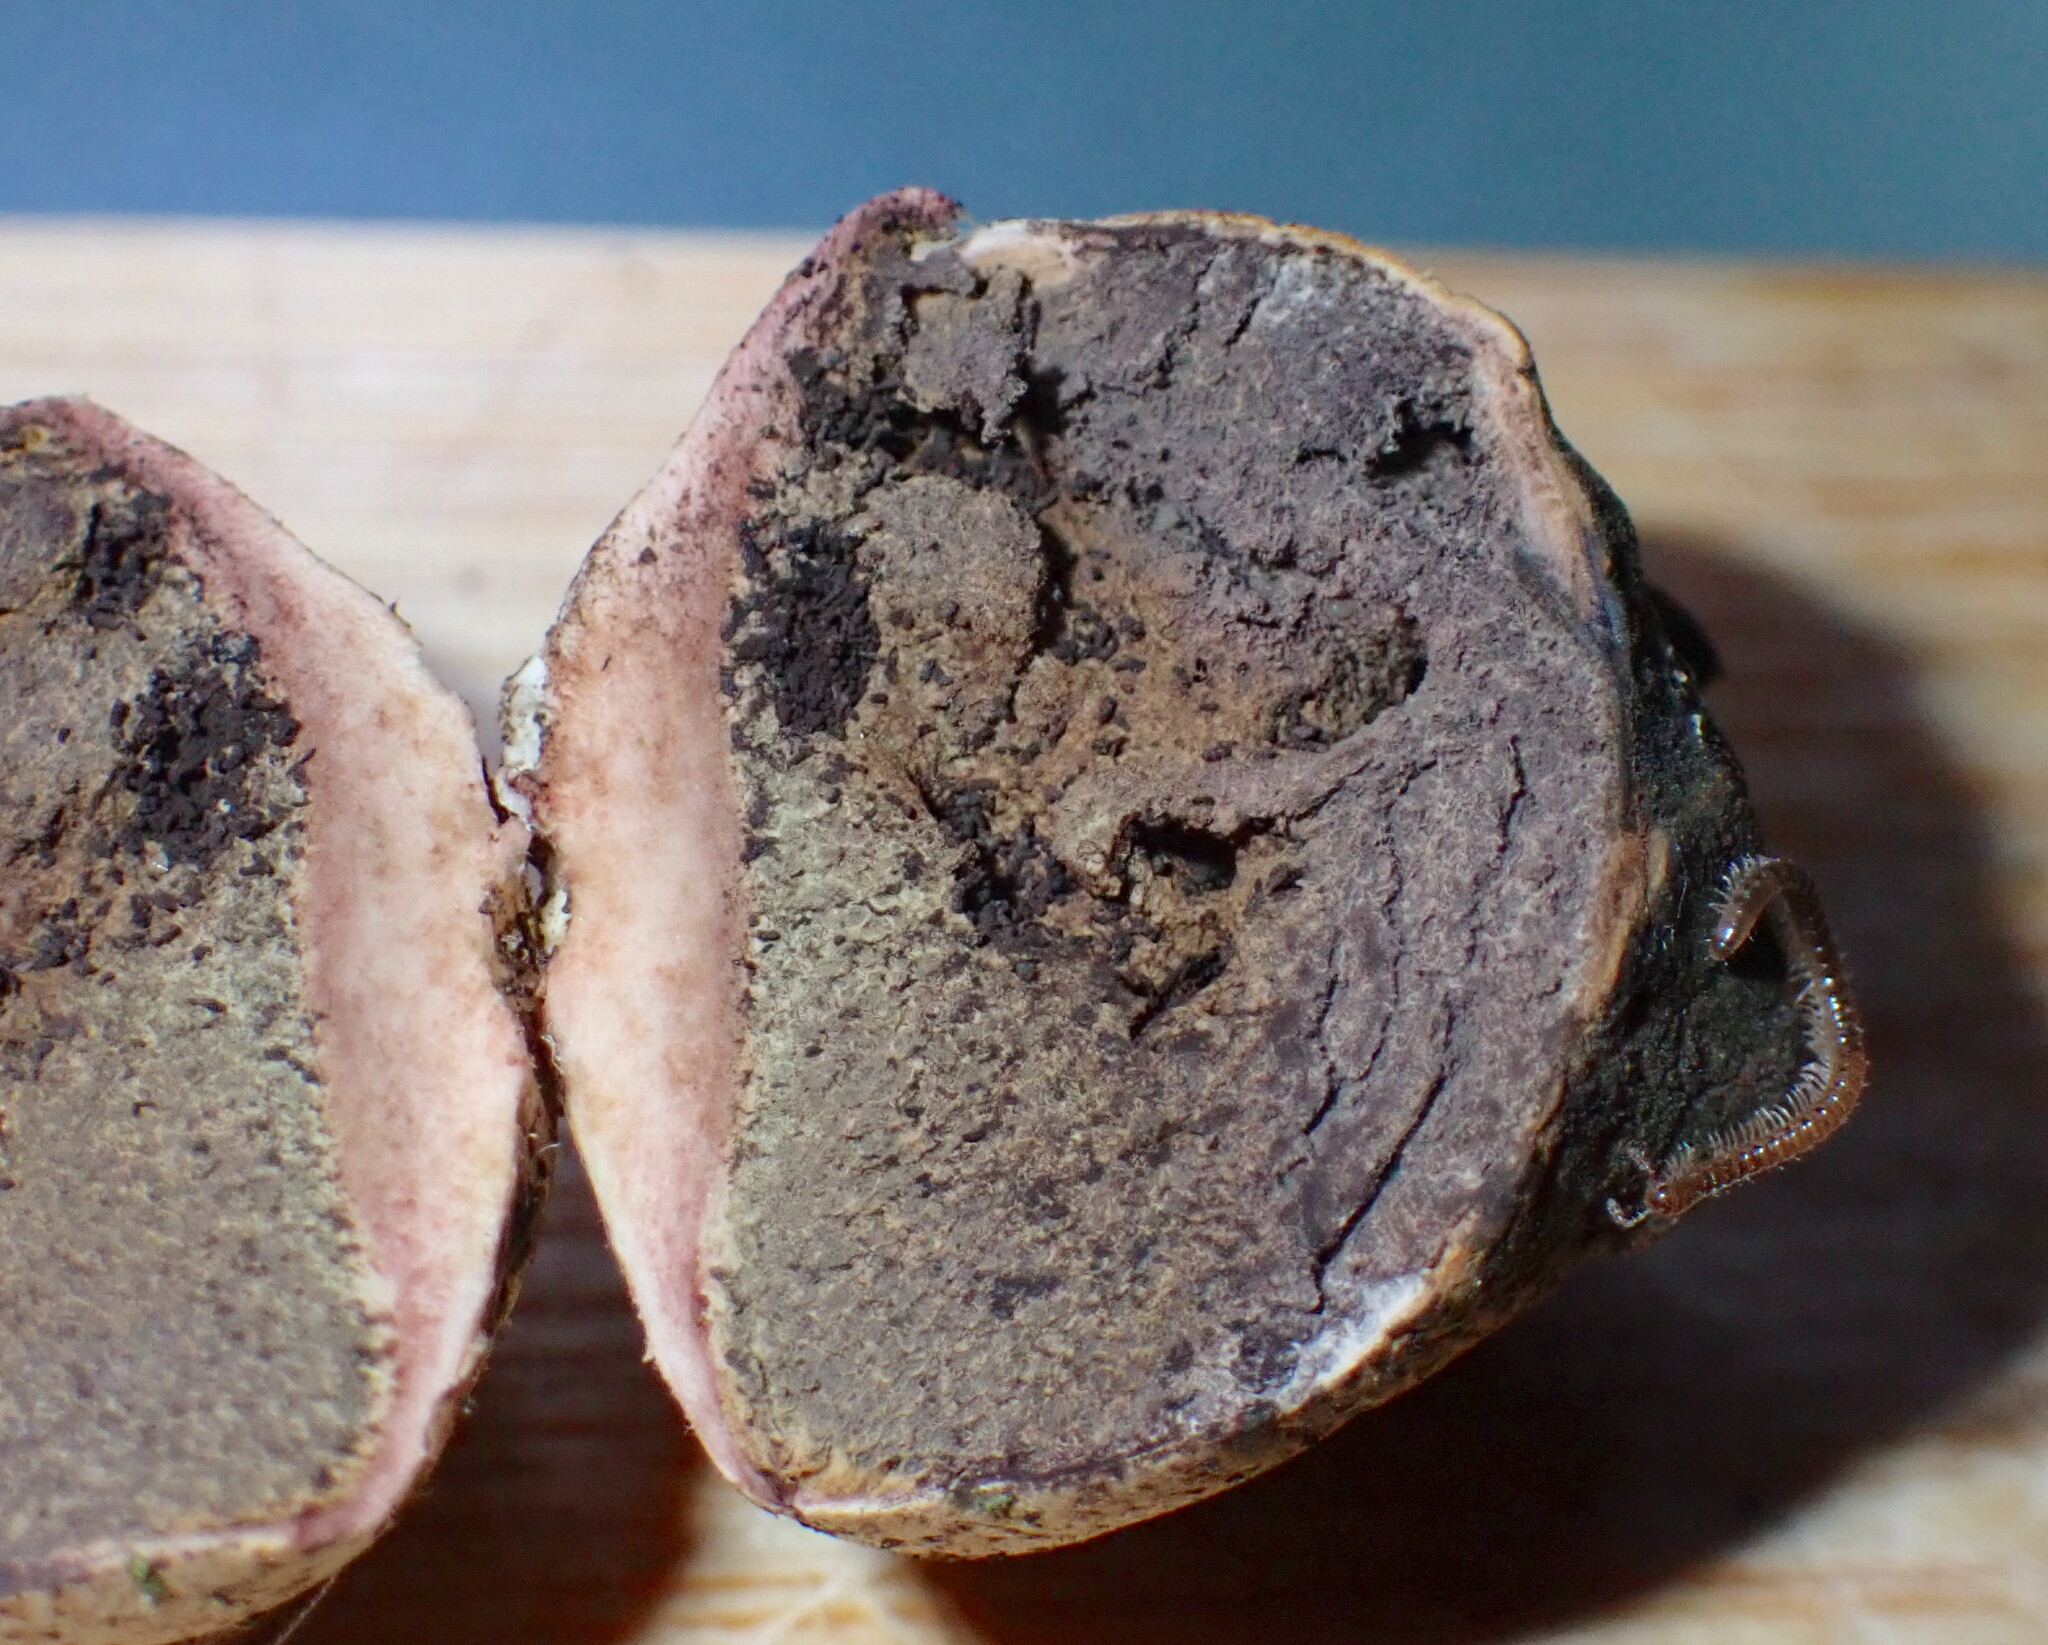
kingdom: Fungi
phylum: Basidiomycota
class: Agaricomycetes
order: Boletales
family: Sclerodermataceae
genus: Scleroderma
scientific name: Scleroderma citrinum
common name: Common earthball
